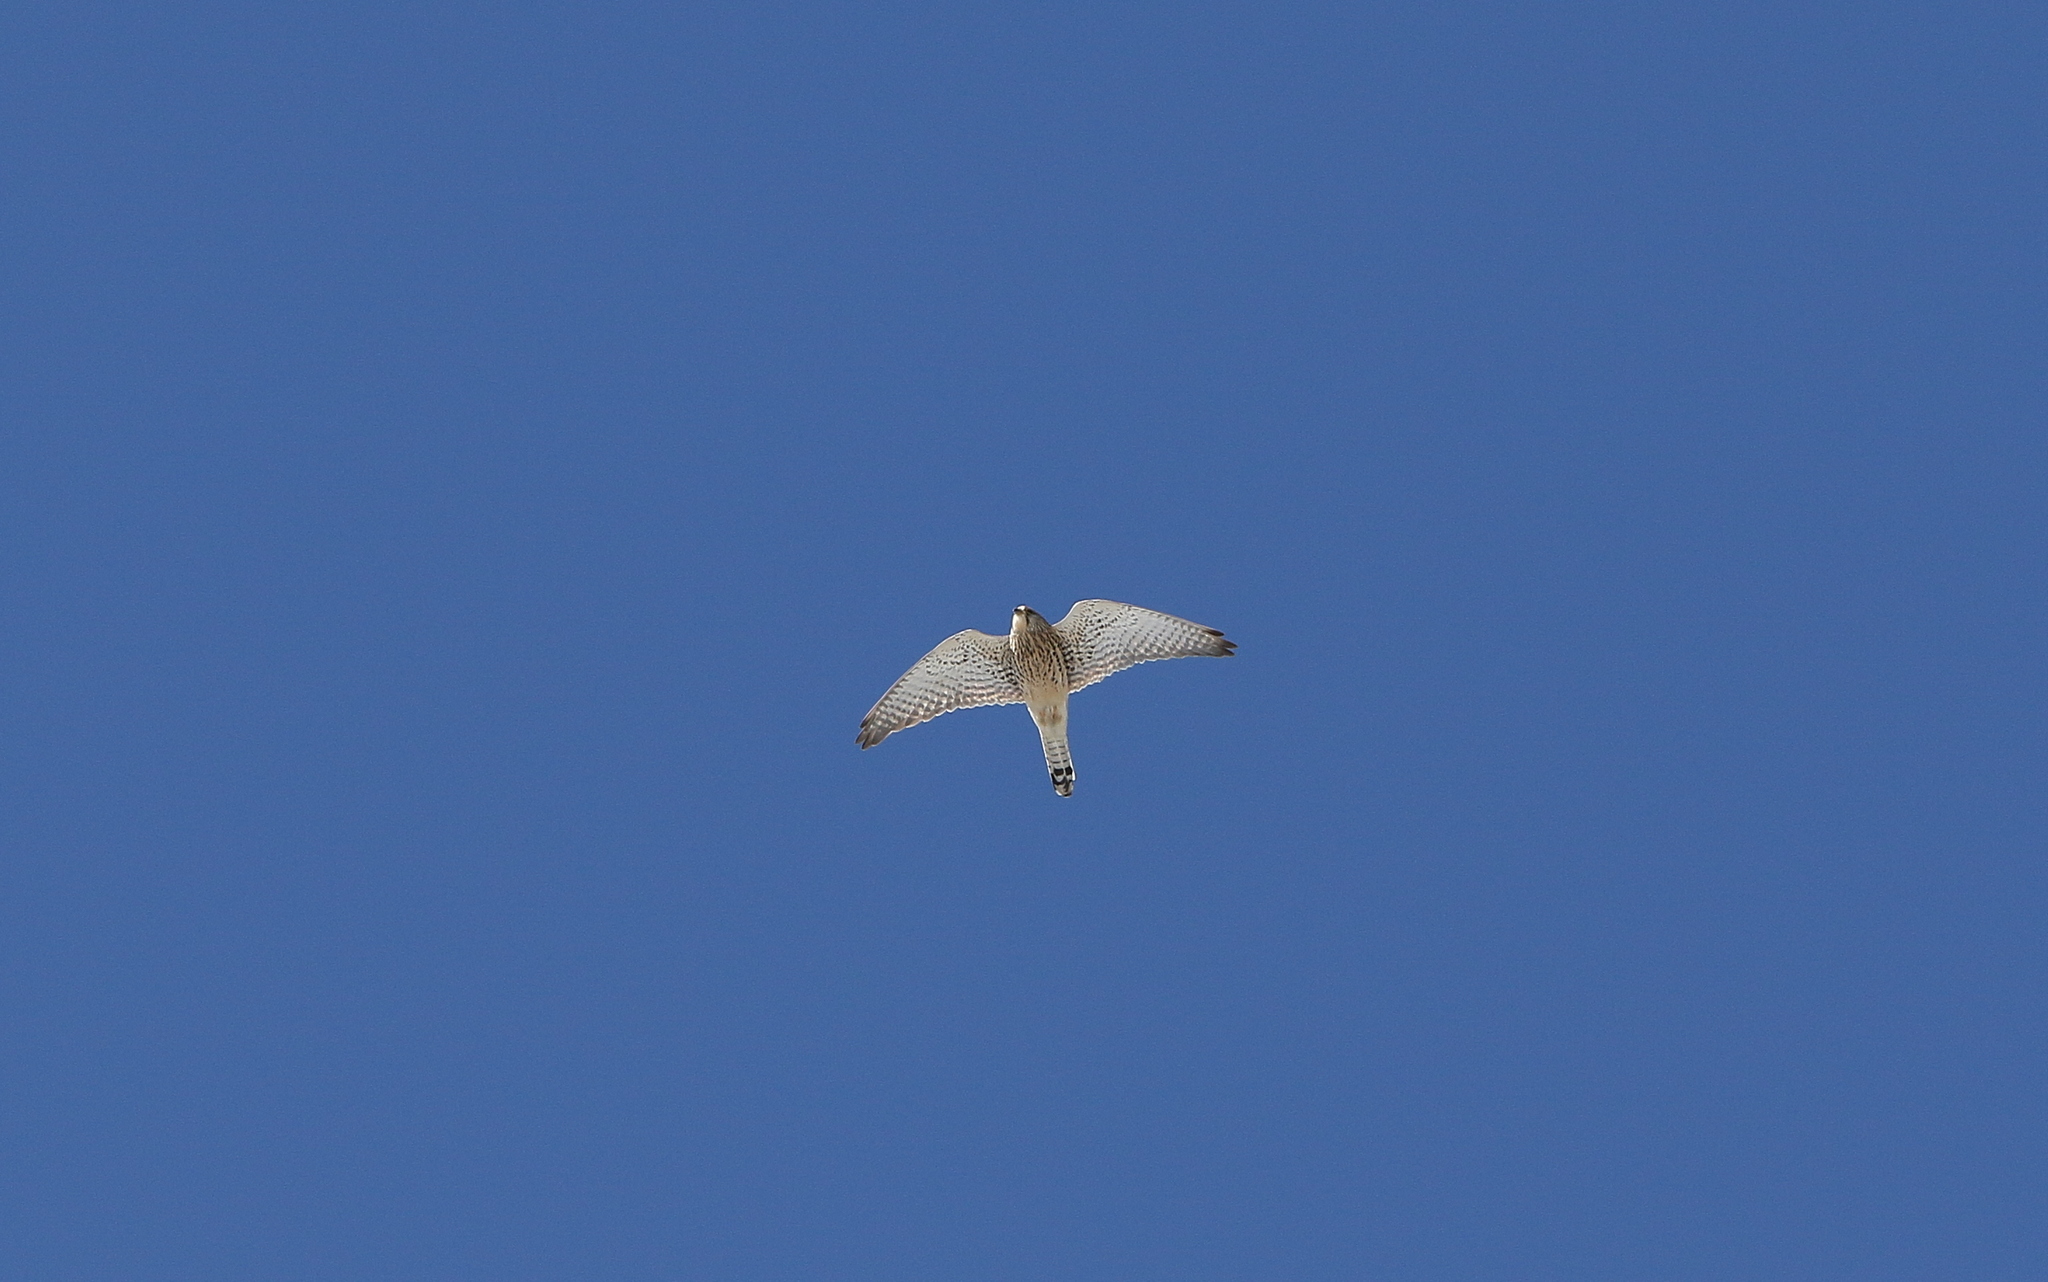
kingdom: Animalia
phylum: Chordata
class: Aves
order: Falconiformes
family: Falconidae
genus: Falco
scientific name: Falco tinnunculus
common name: Common kestrel
